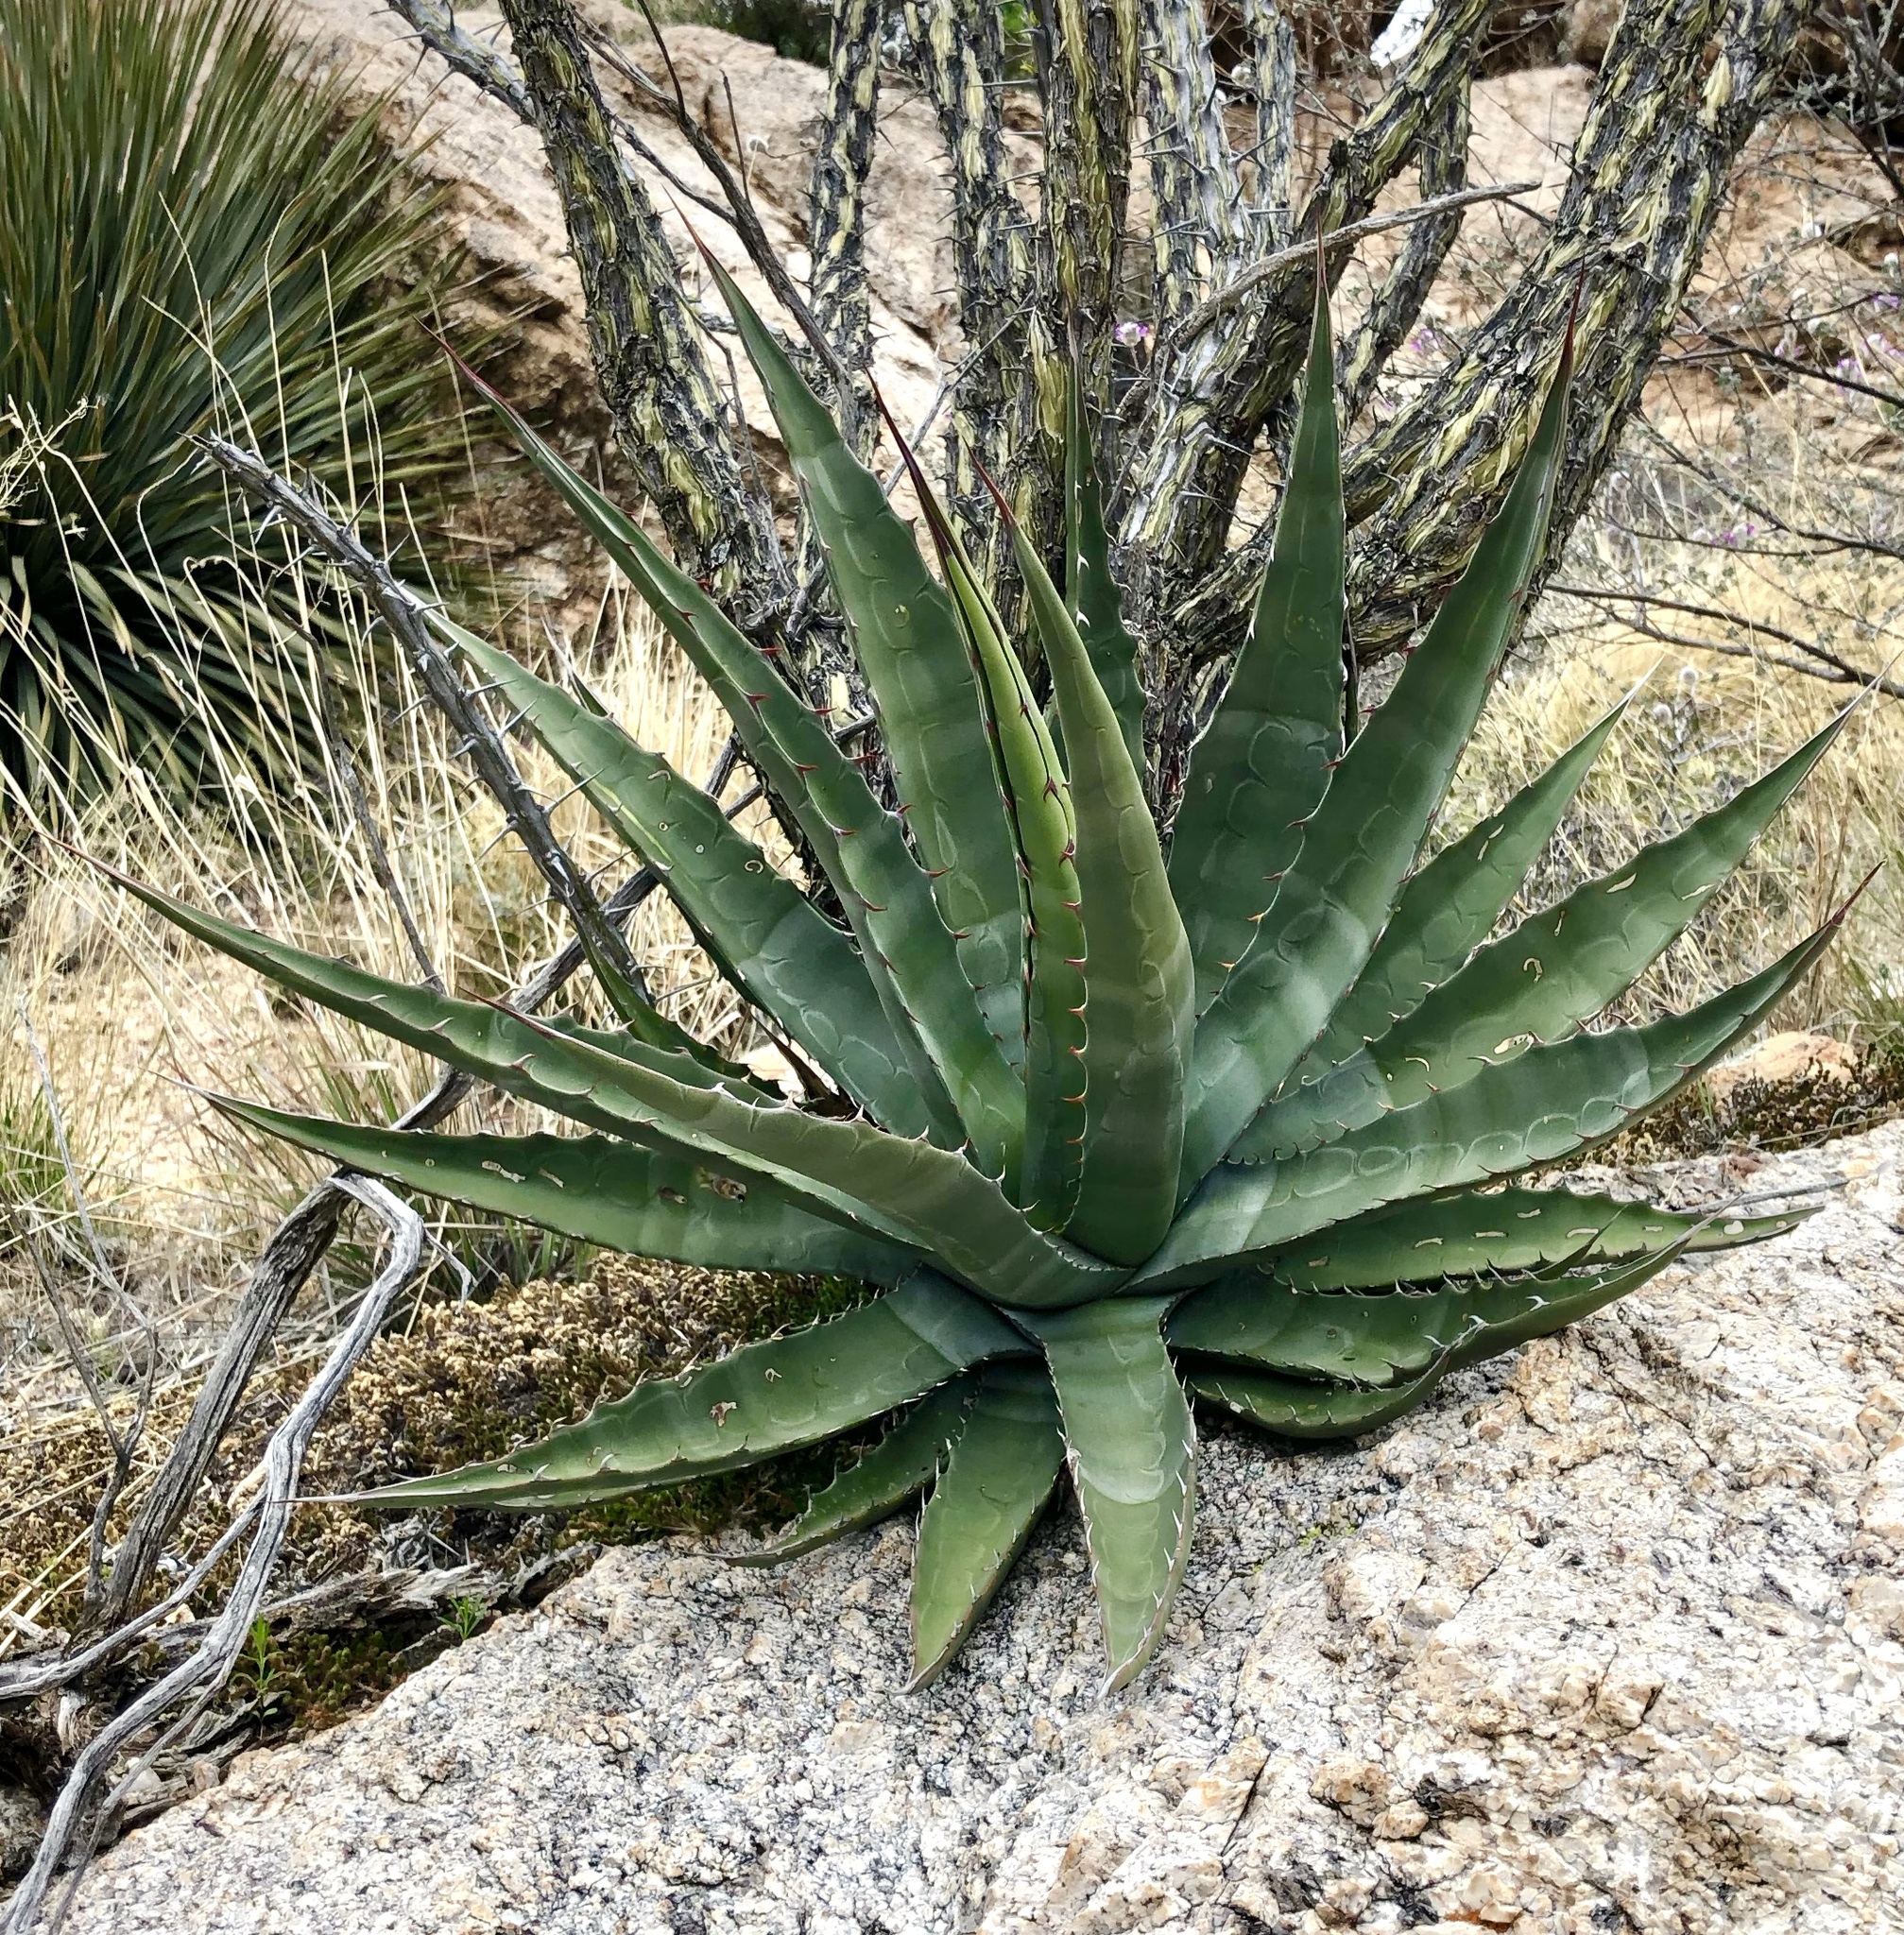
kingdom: Plantae
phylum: Tracheophyta
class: Liliopsida
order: Asparagales
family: Asparagaceae
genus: Agave
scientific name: Agave palmeri
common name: Palmer agave
